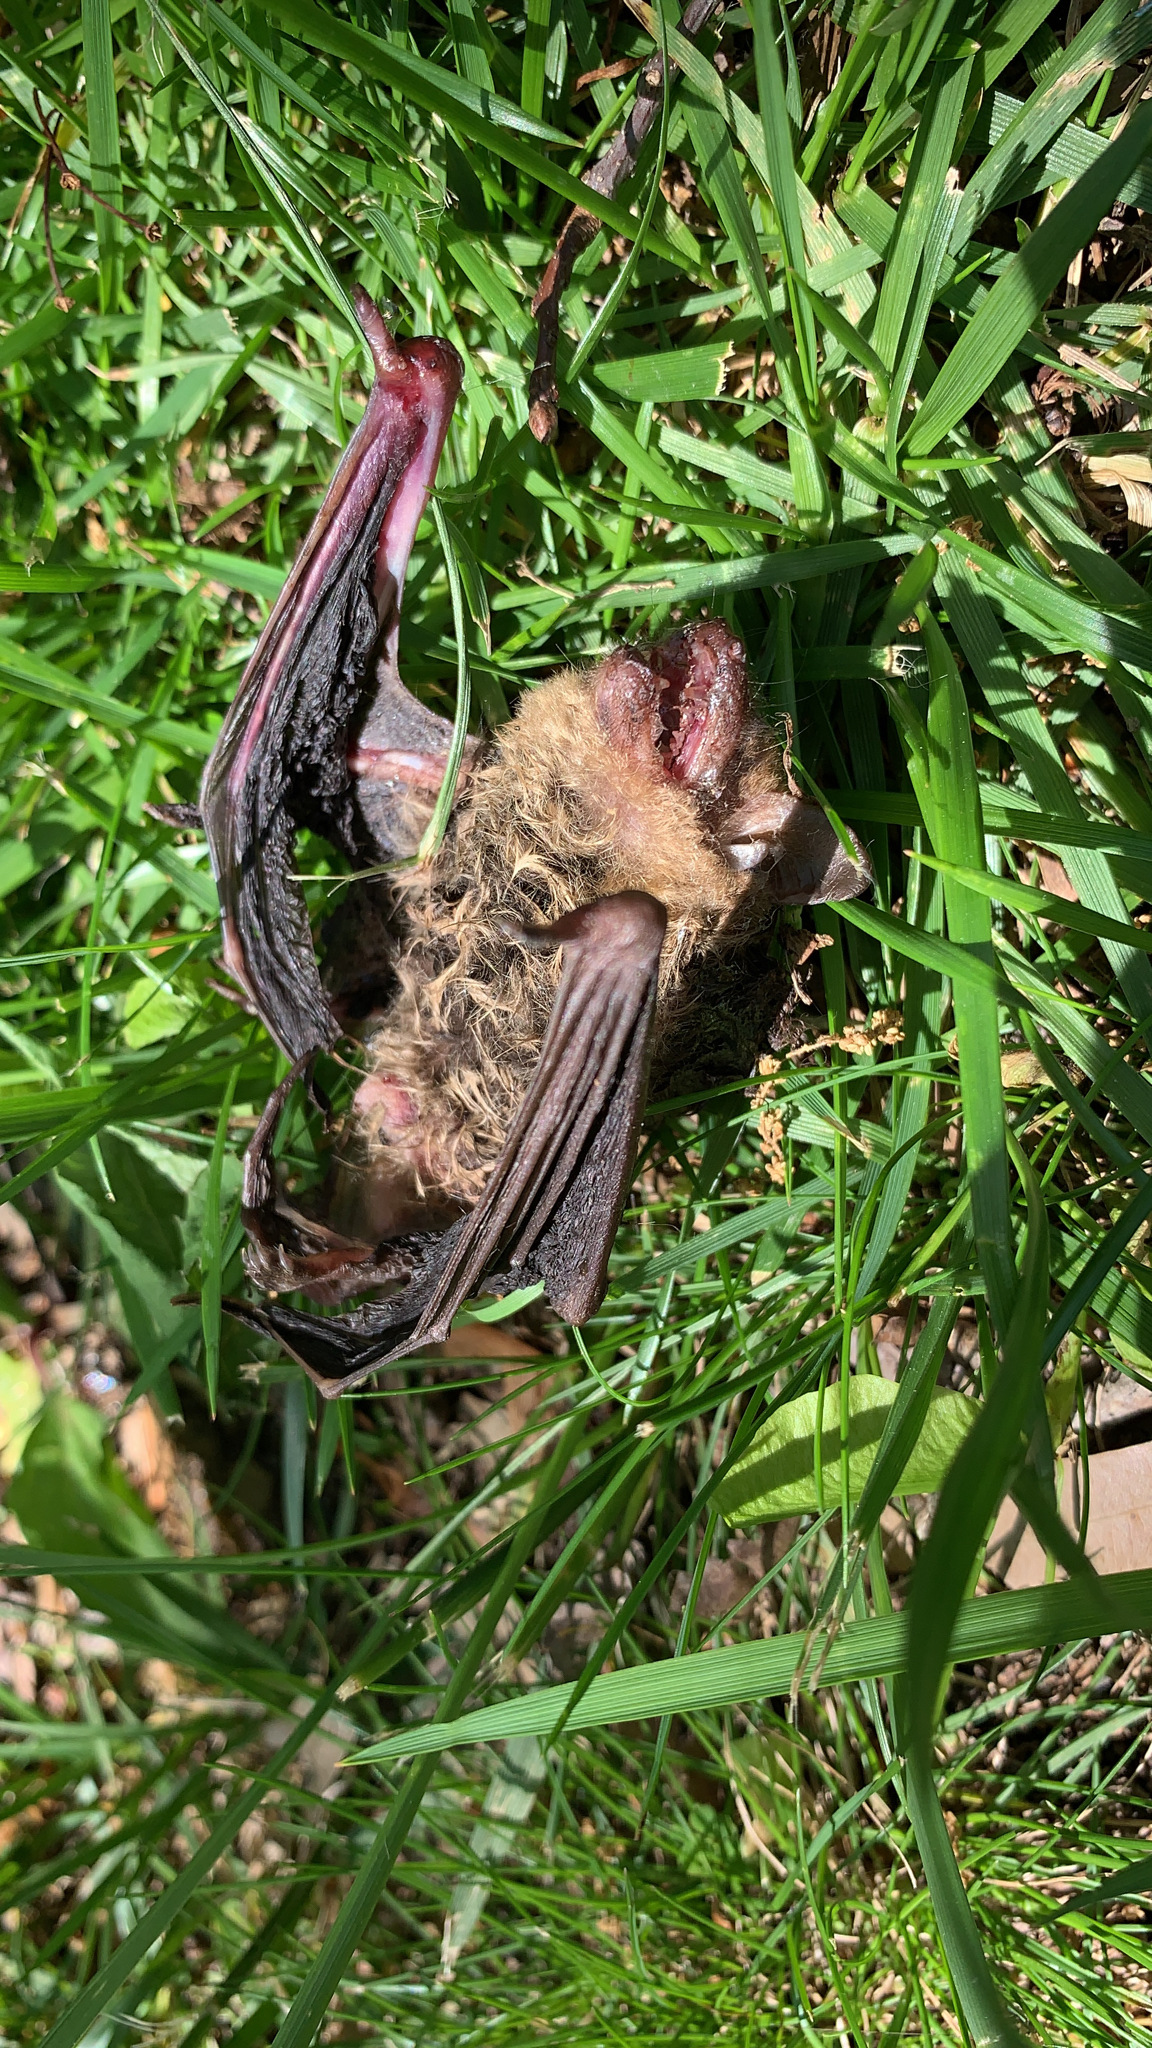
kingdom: Animalia
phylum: Chordata
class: Mammalia
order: Chiroptera
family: Vespertilionidae
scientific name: Vespertilionidae
